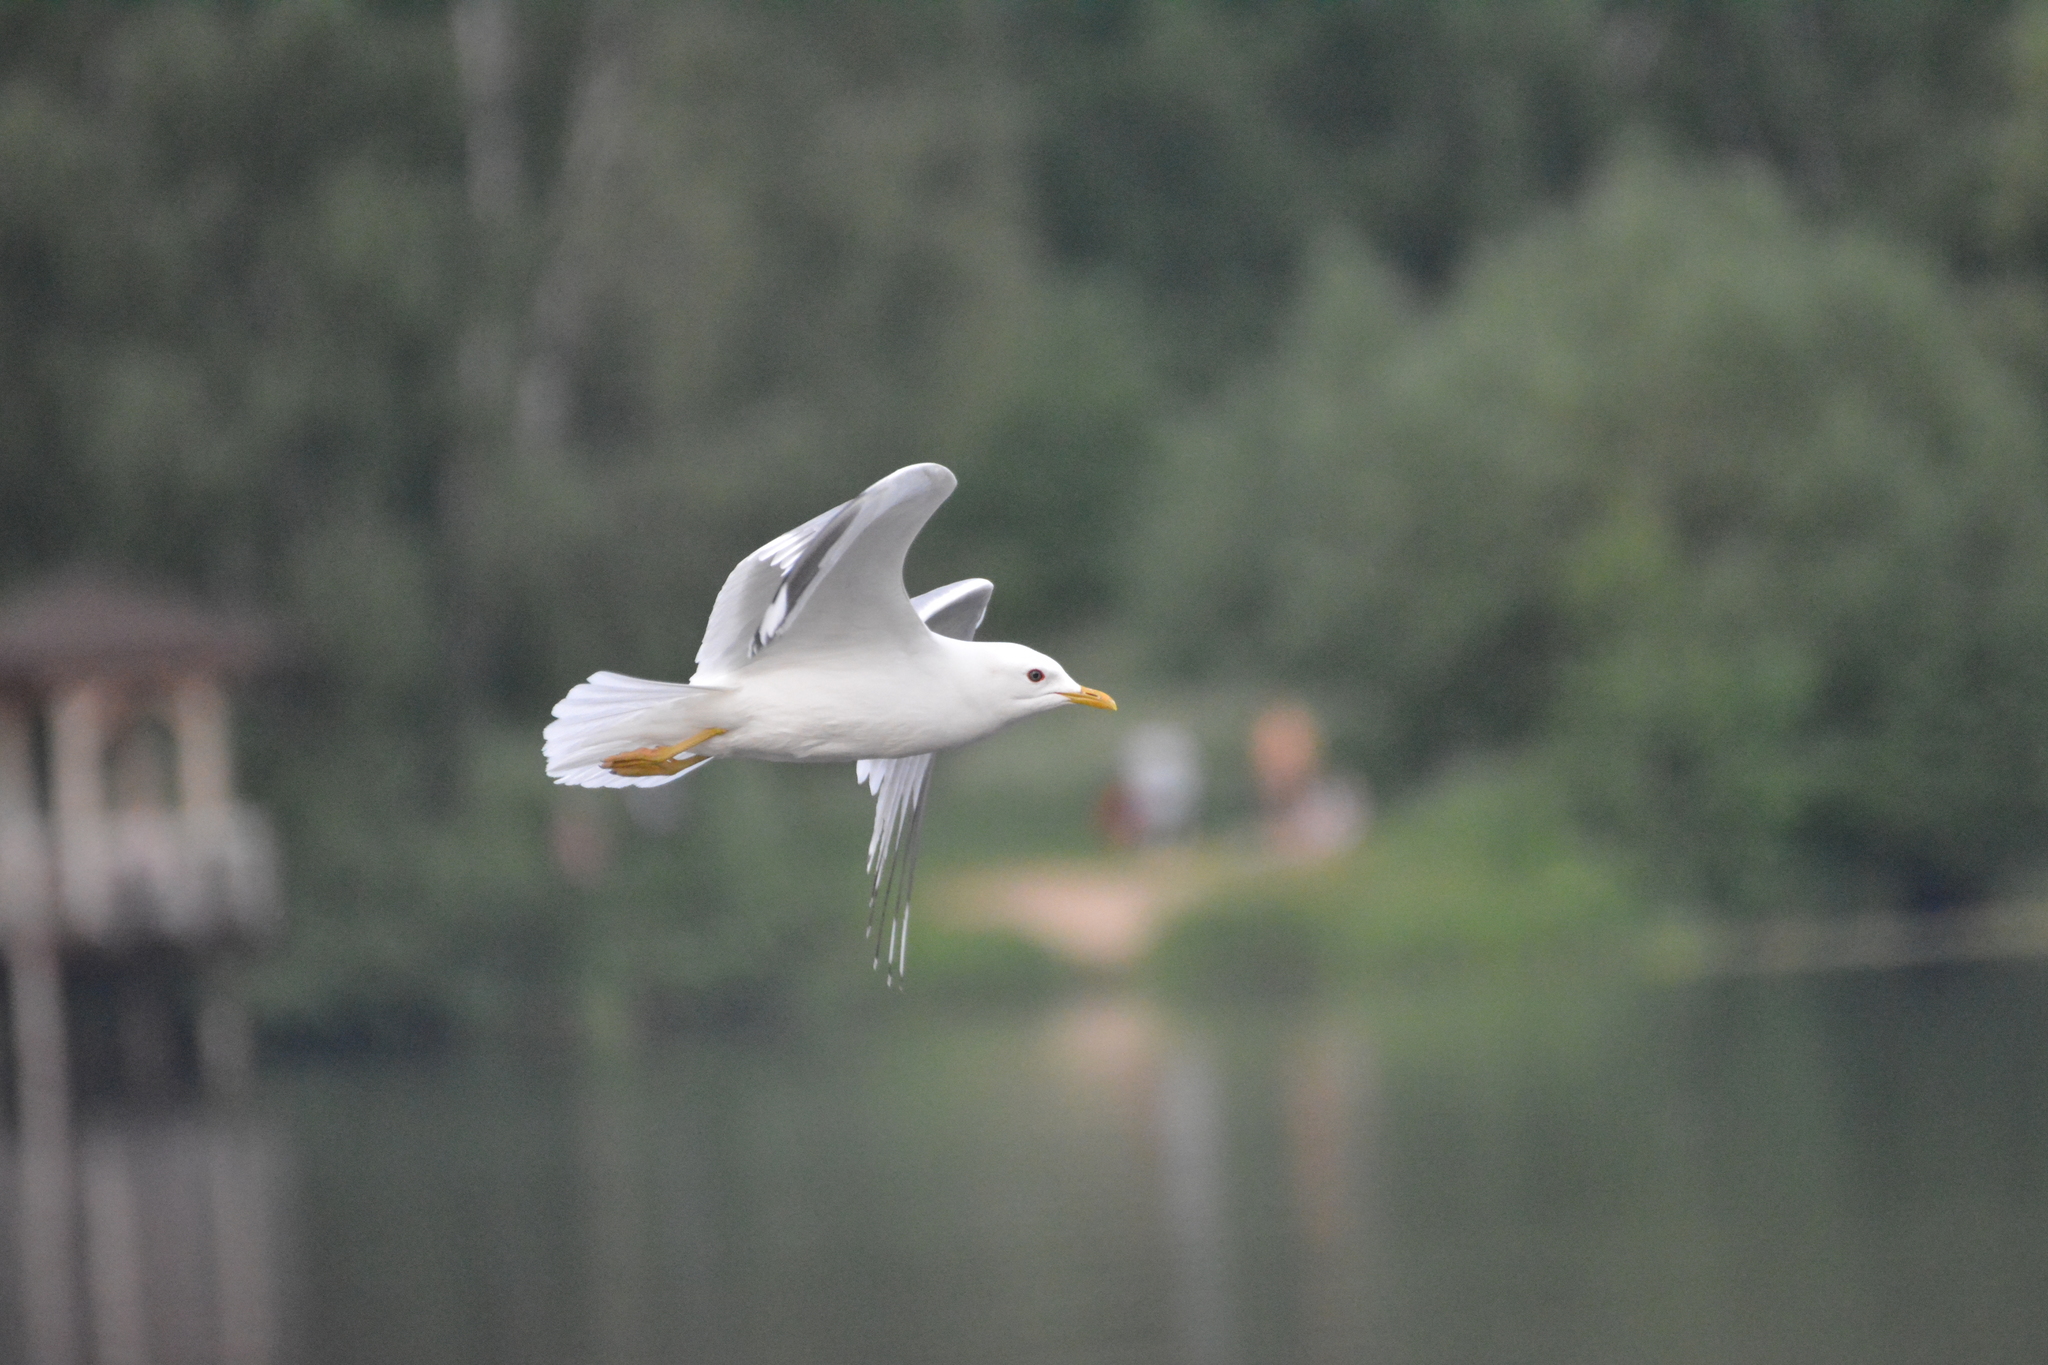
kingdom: Animalia
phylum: Chordata
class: Aves
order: Charadriiformes
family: Laridae
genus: Larus
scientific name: Larus canus
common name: Mew gull
